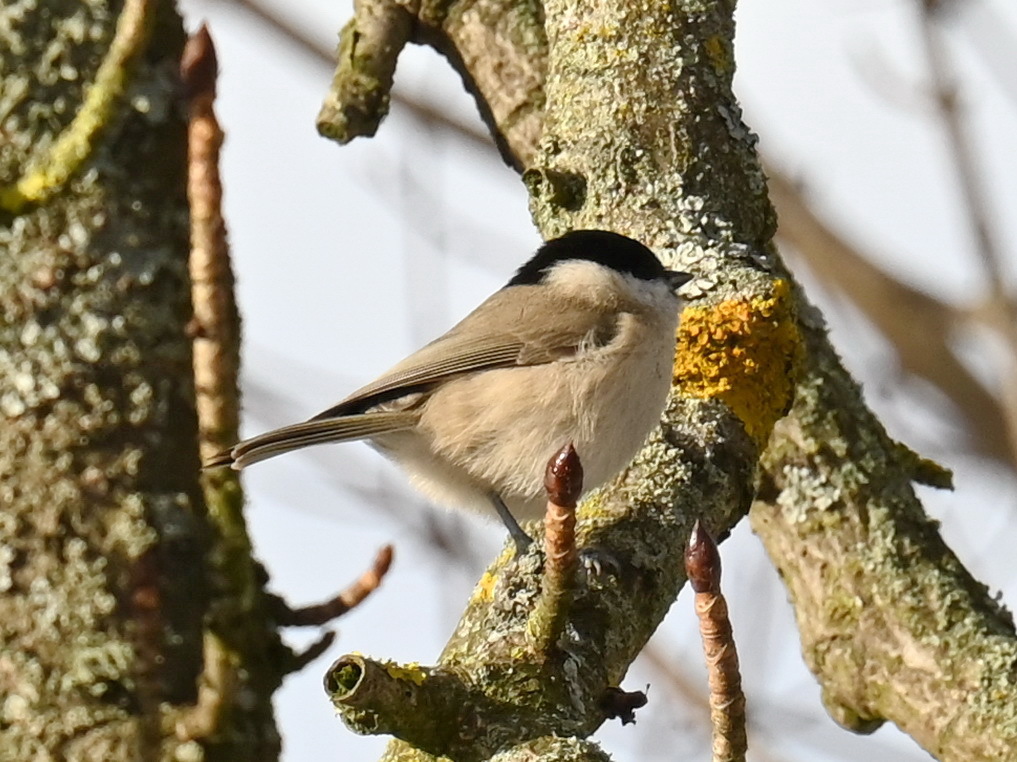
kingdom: Animalia
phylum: Chordata
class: Aves
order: Passeriformes
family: Paridae
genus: Poecile
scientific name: Poecile palustris
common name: Marsh tit
